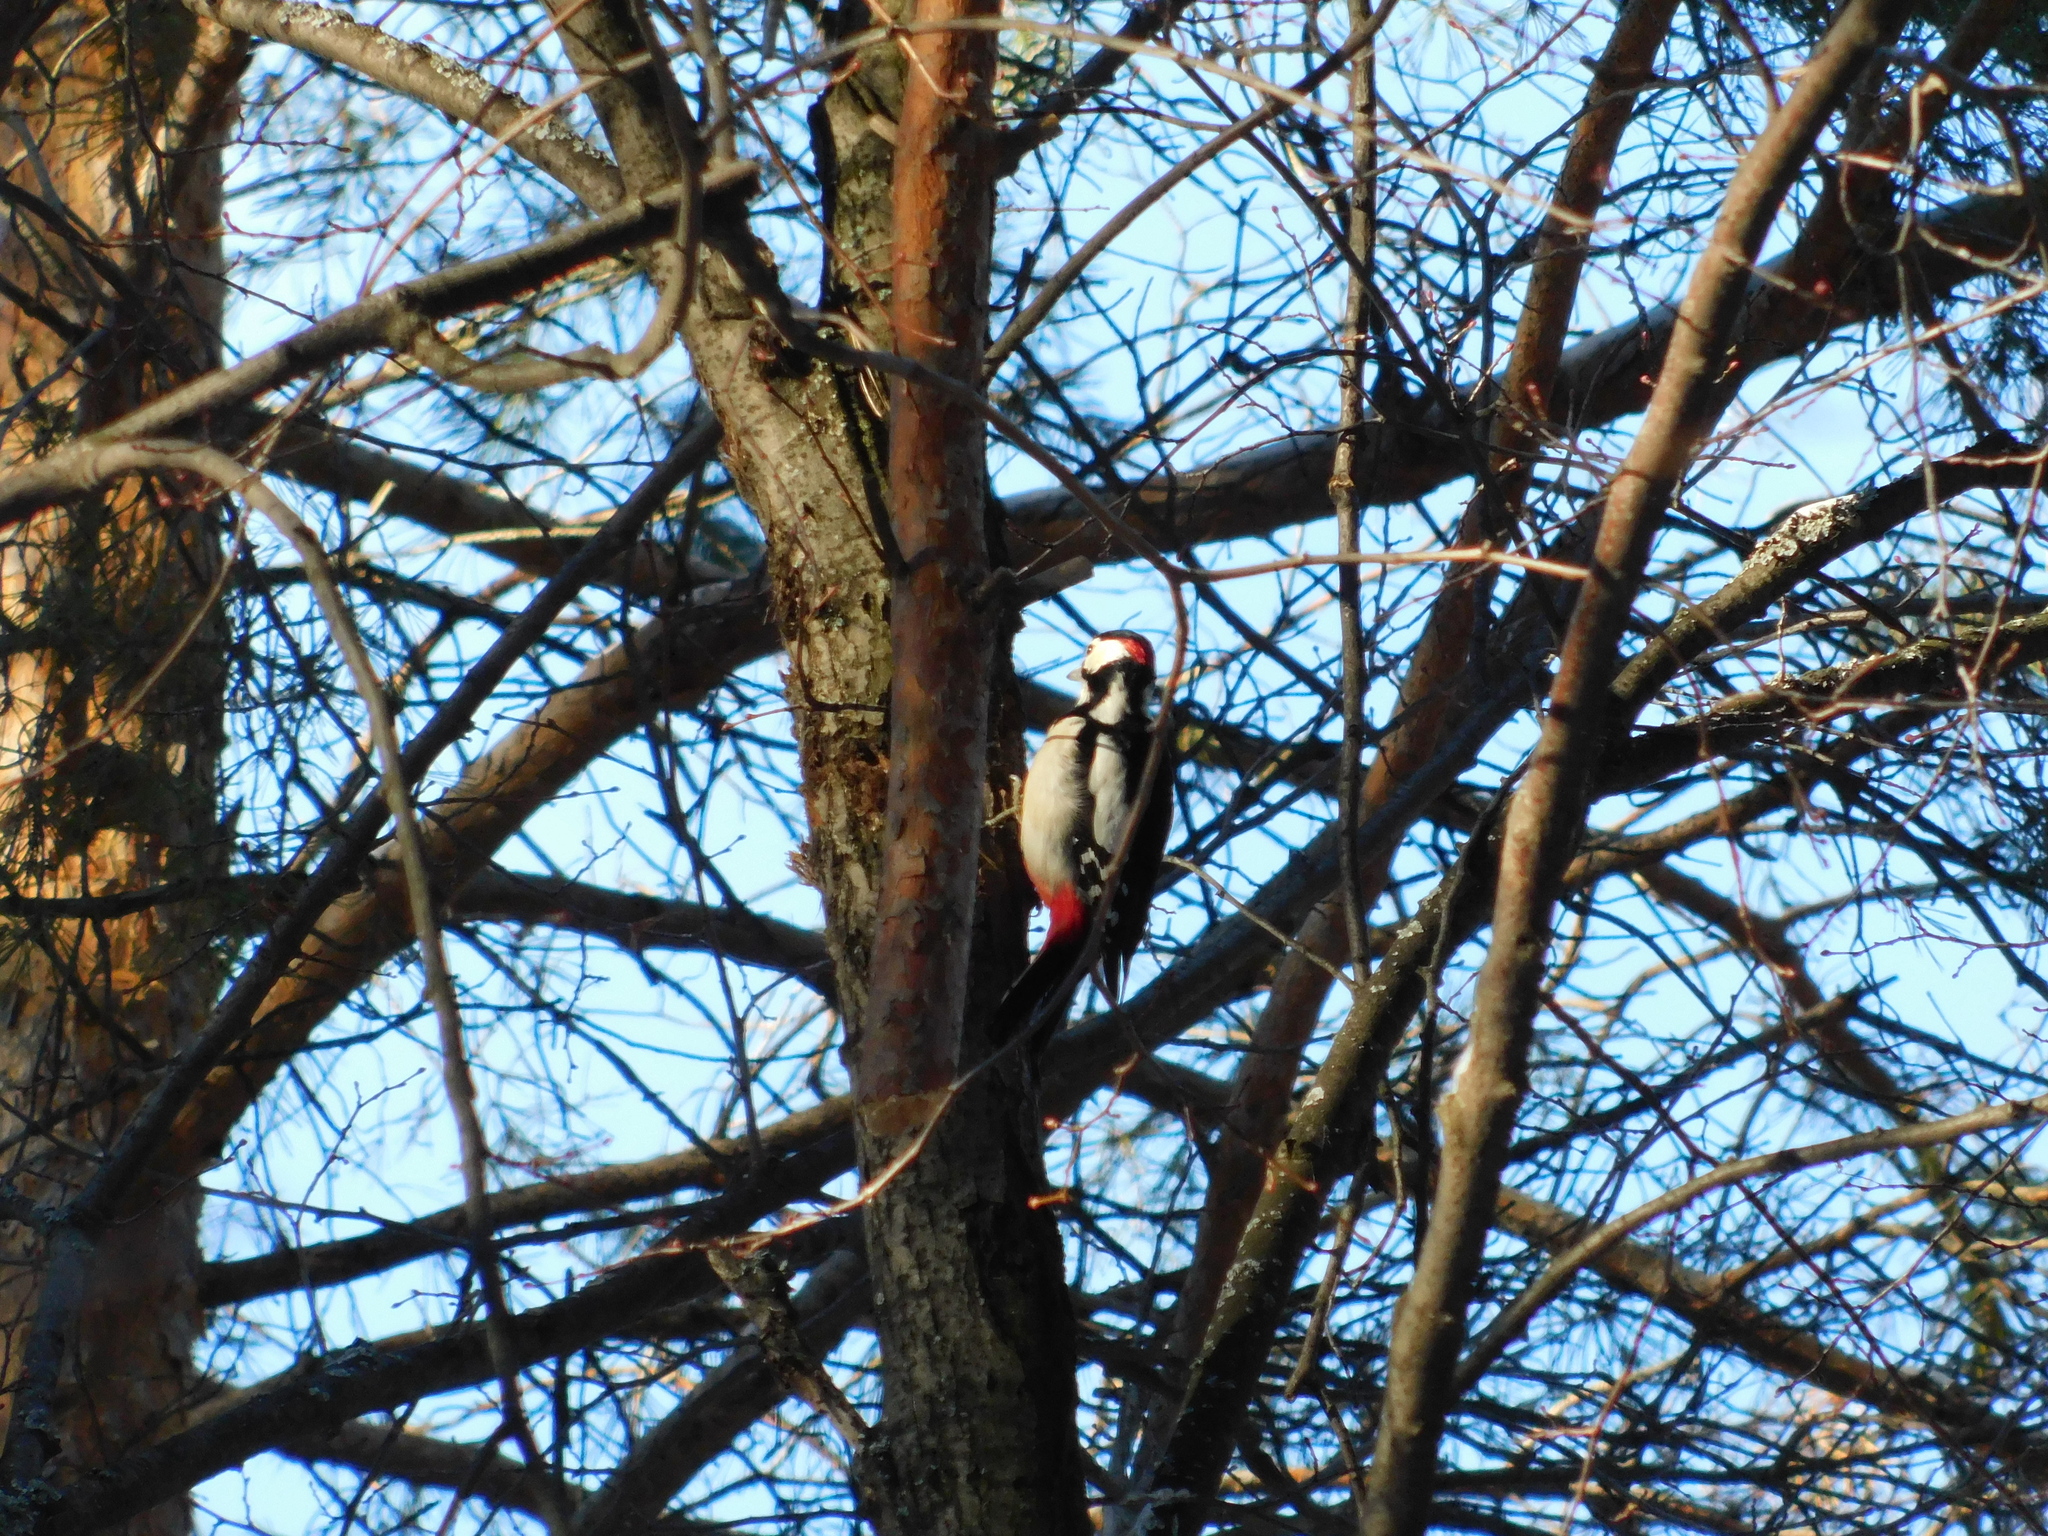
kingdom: Animalia
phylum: Chordata
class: Aves
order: Piciformes
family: Picidae
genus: Dendrocopos
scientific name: Dendrocopos major
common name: Great spotted woodpecker
